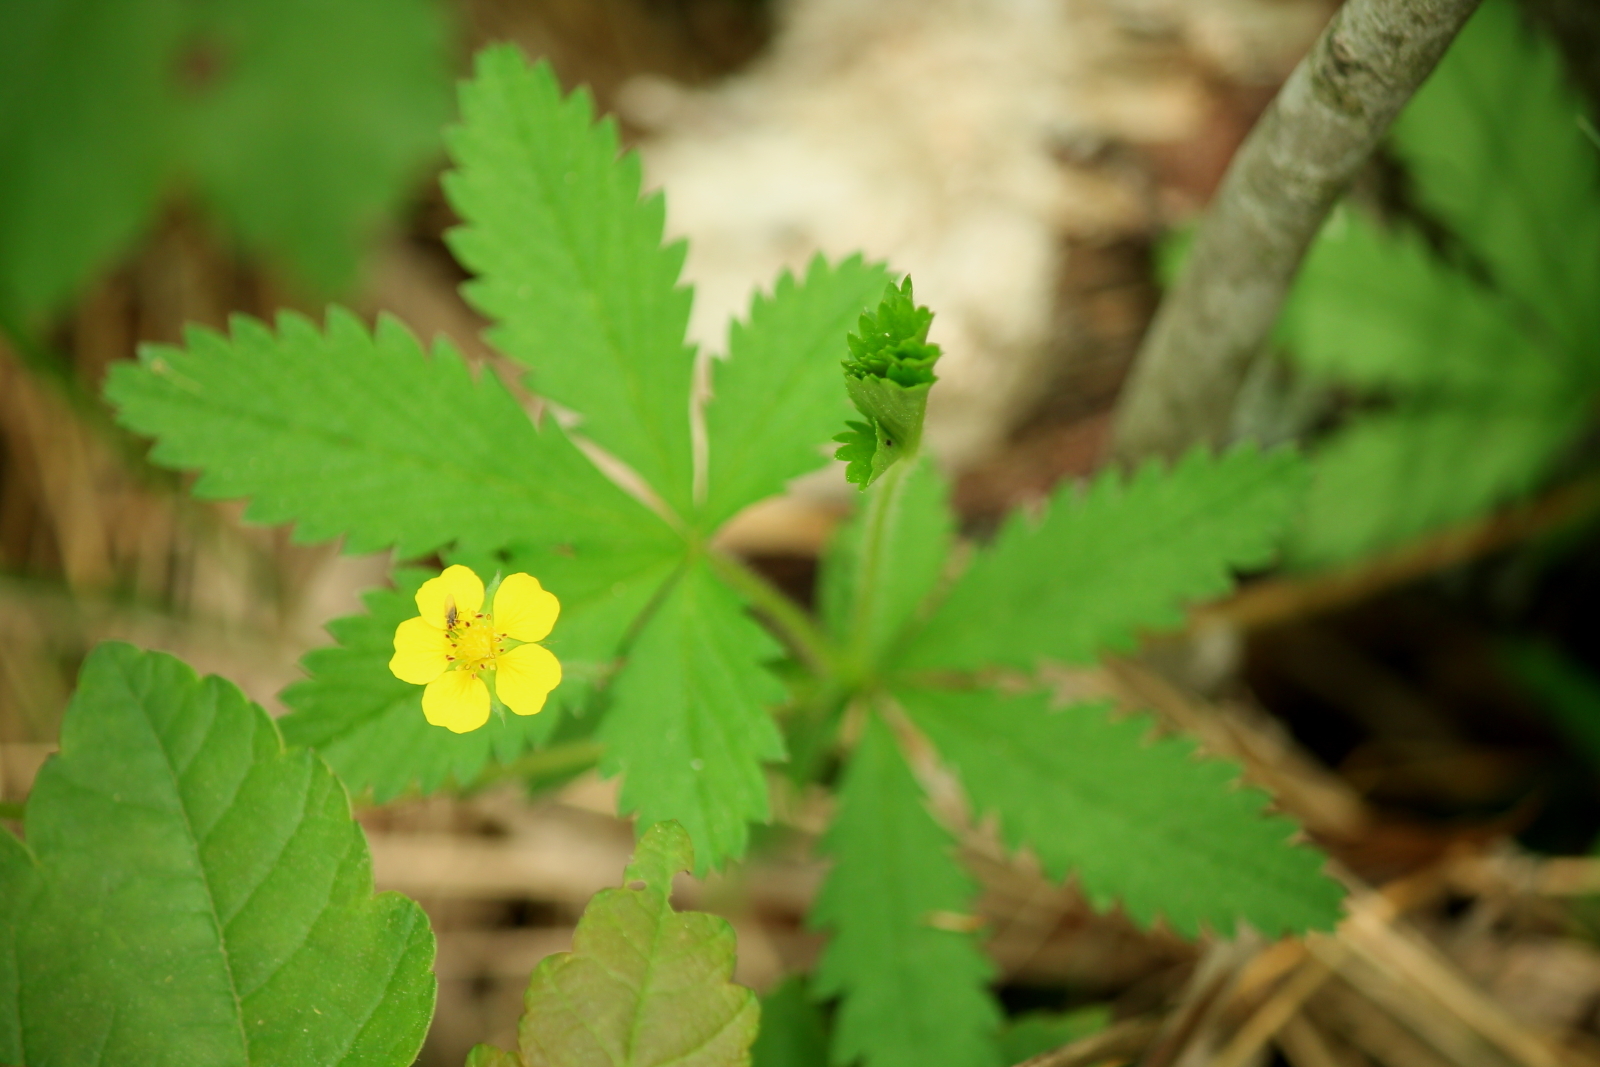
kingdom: Plantae
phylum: Tracheophyta
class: Magnoliopsida
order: Rosales
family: Rosaceae
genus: Potentilla
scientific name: Potentilla simplex
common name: Old field cinquefoil
